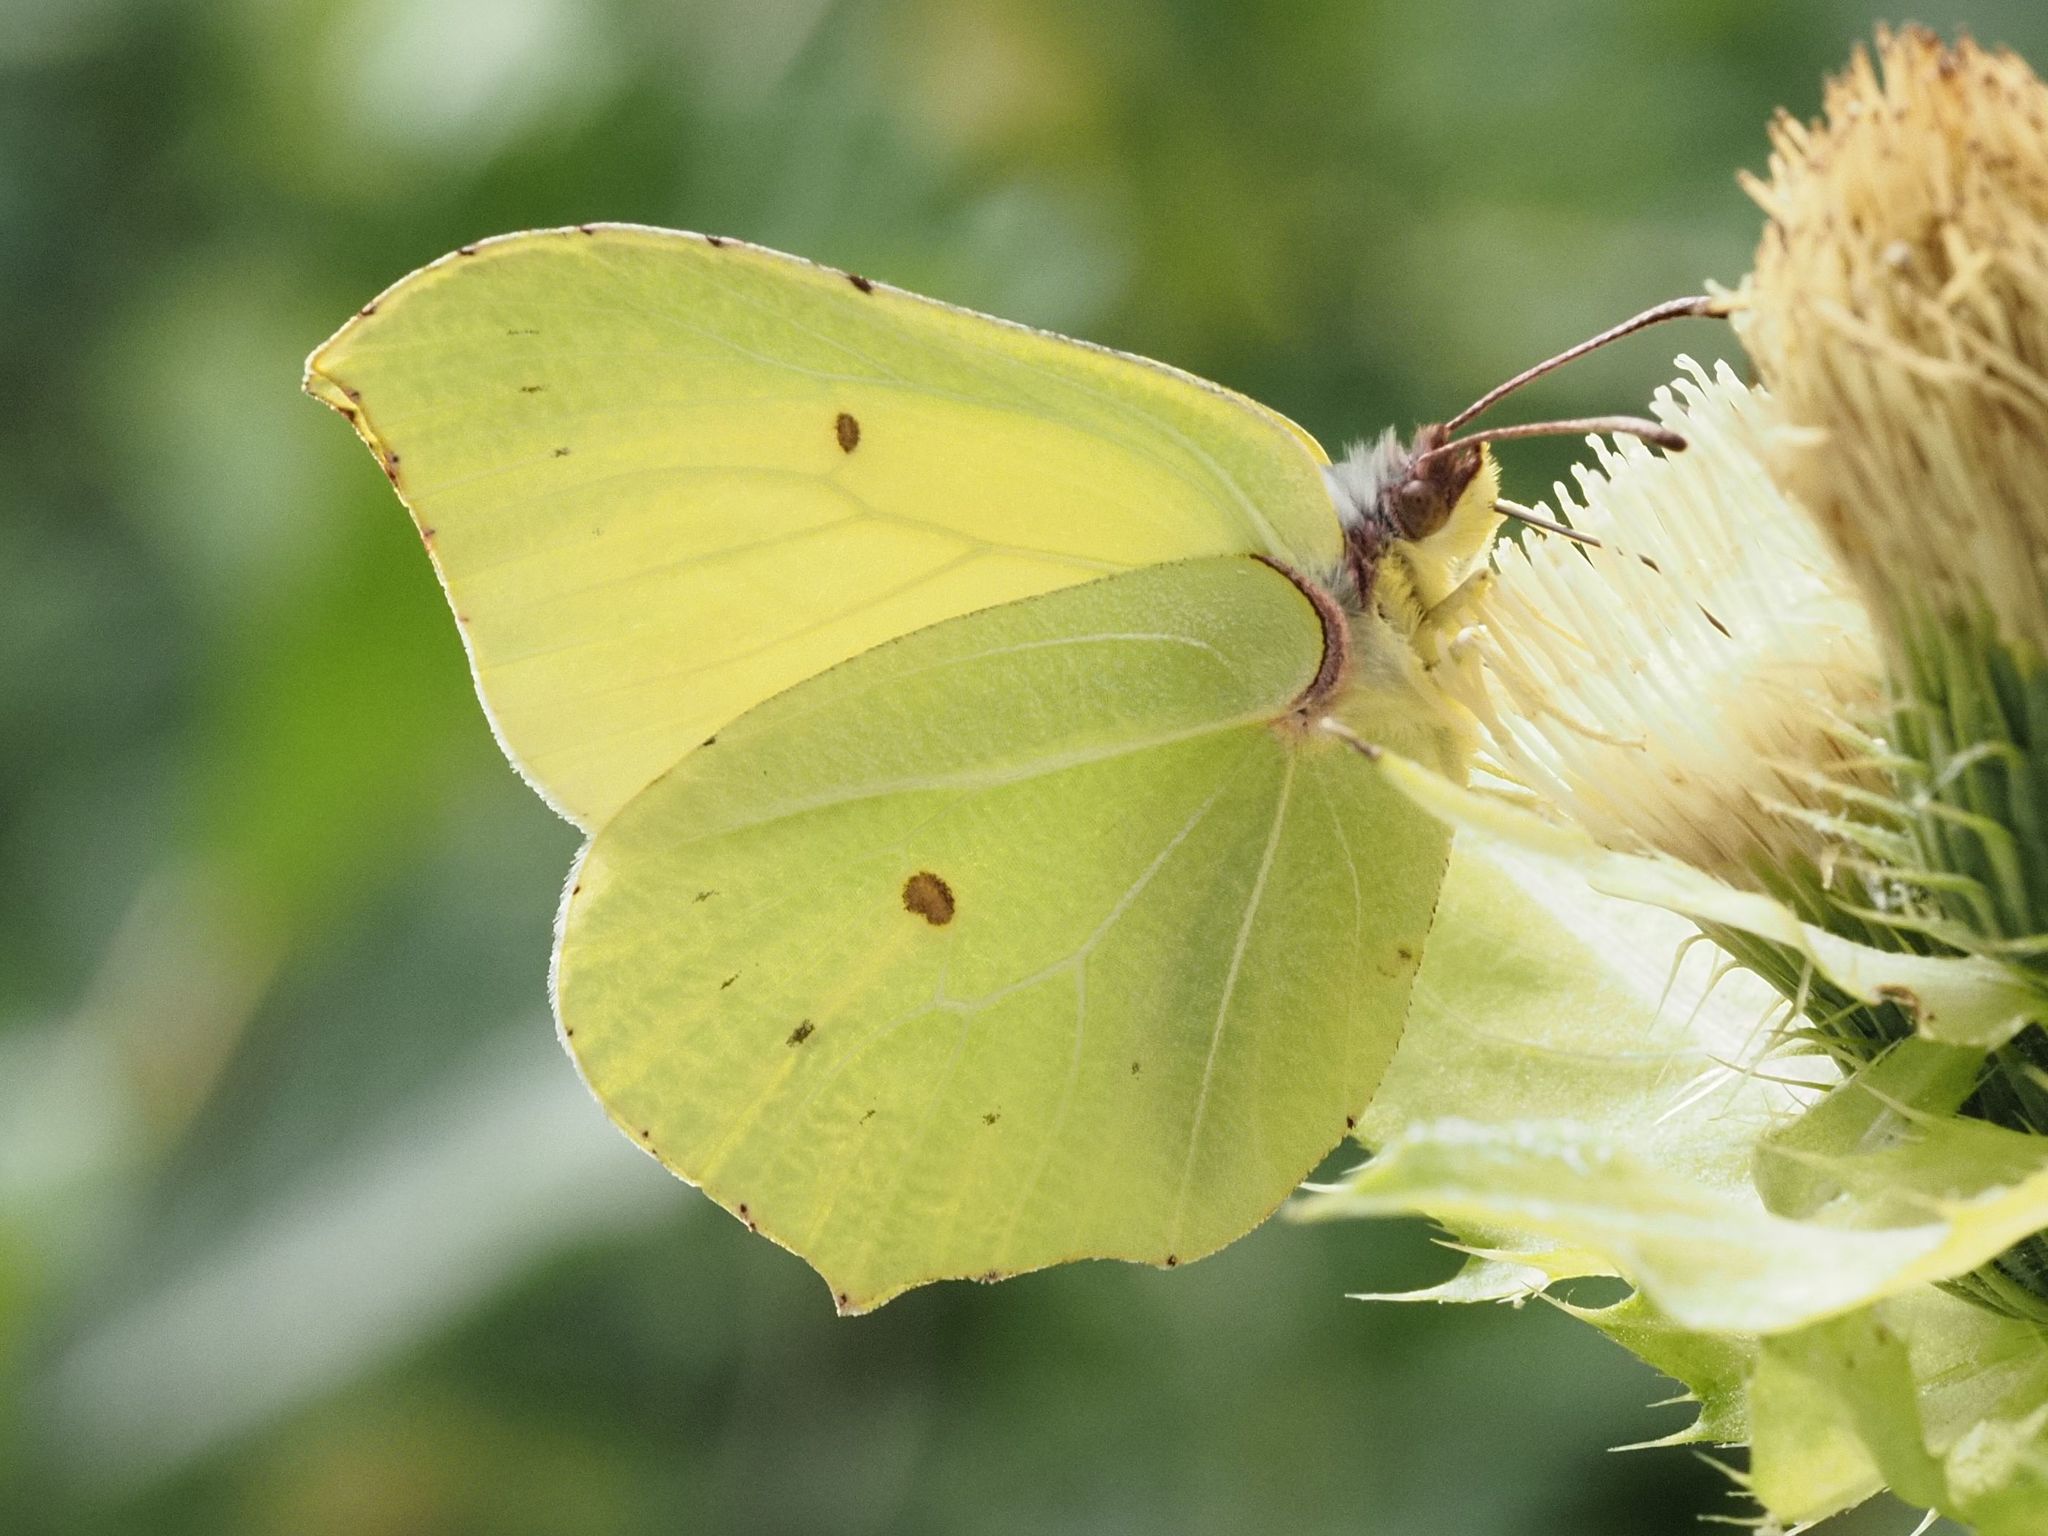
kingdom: Animalia
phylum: Arthropoda
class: Insecta
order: Lepidoptera
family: Pieridae
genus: Gonepteryx
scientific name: Gonepteryx rhamni
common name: Brimstone
